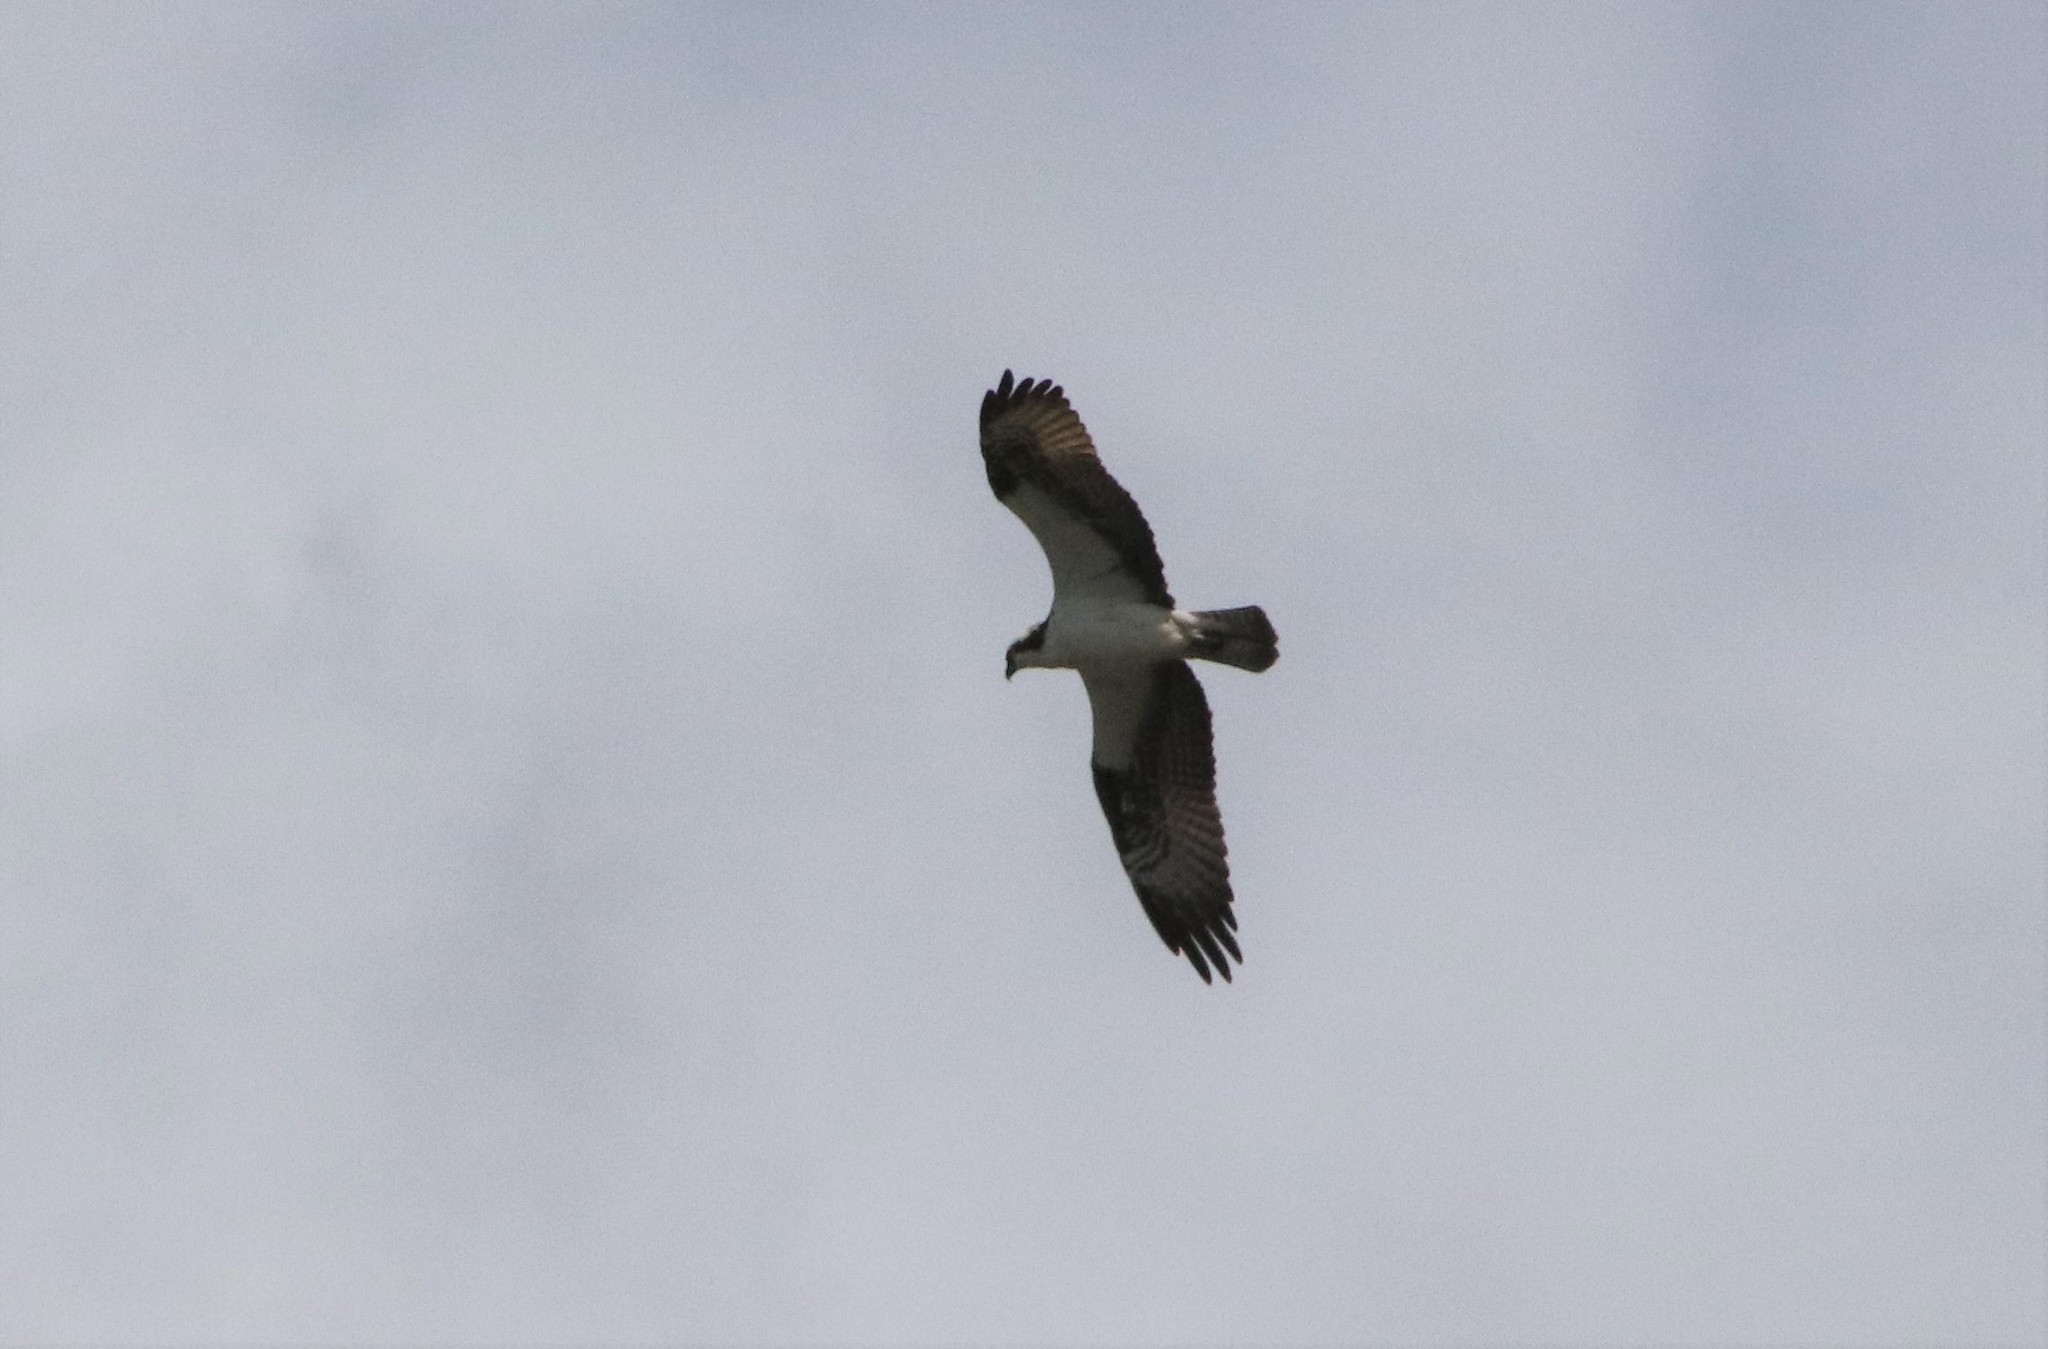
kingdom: Animalia
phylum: Chordata
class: Aves
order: Accipitriformes
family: Pandionidae
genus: Pandion
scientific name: Pandion haliaetus
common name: Osprey
